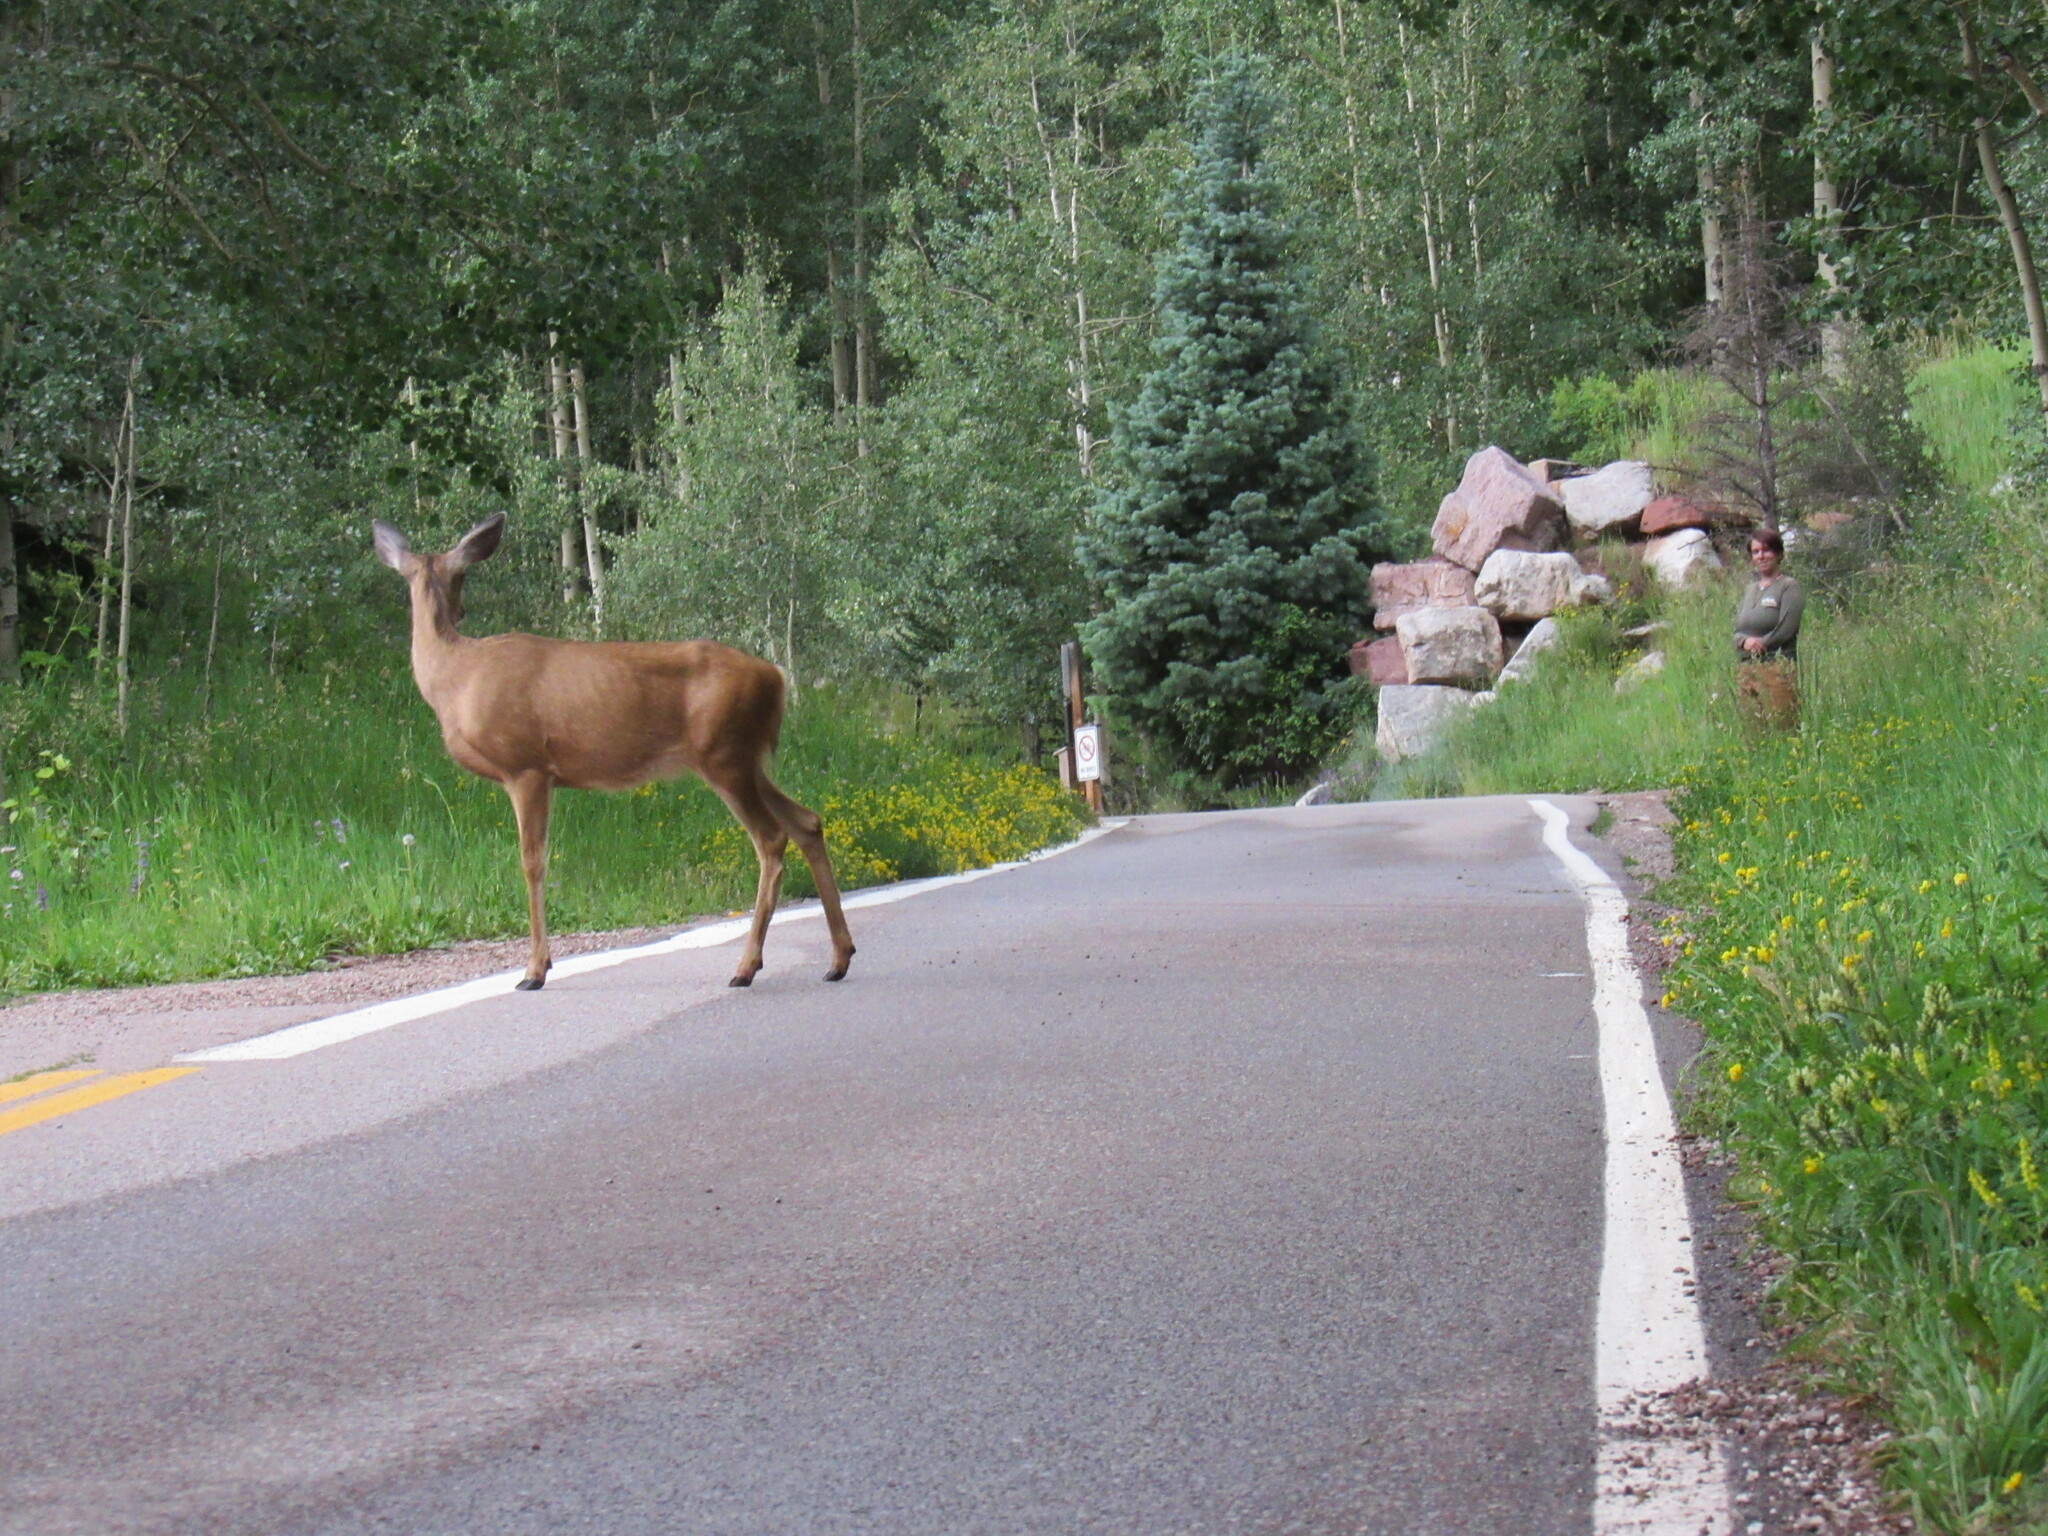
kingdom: Animalia
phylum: Chordata
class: Mammalia
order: Artiodactyla
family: Cervidae
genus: Odocoileus
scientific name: Odocoileus hemionus
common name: Mule deer
